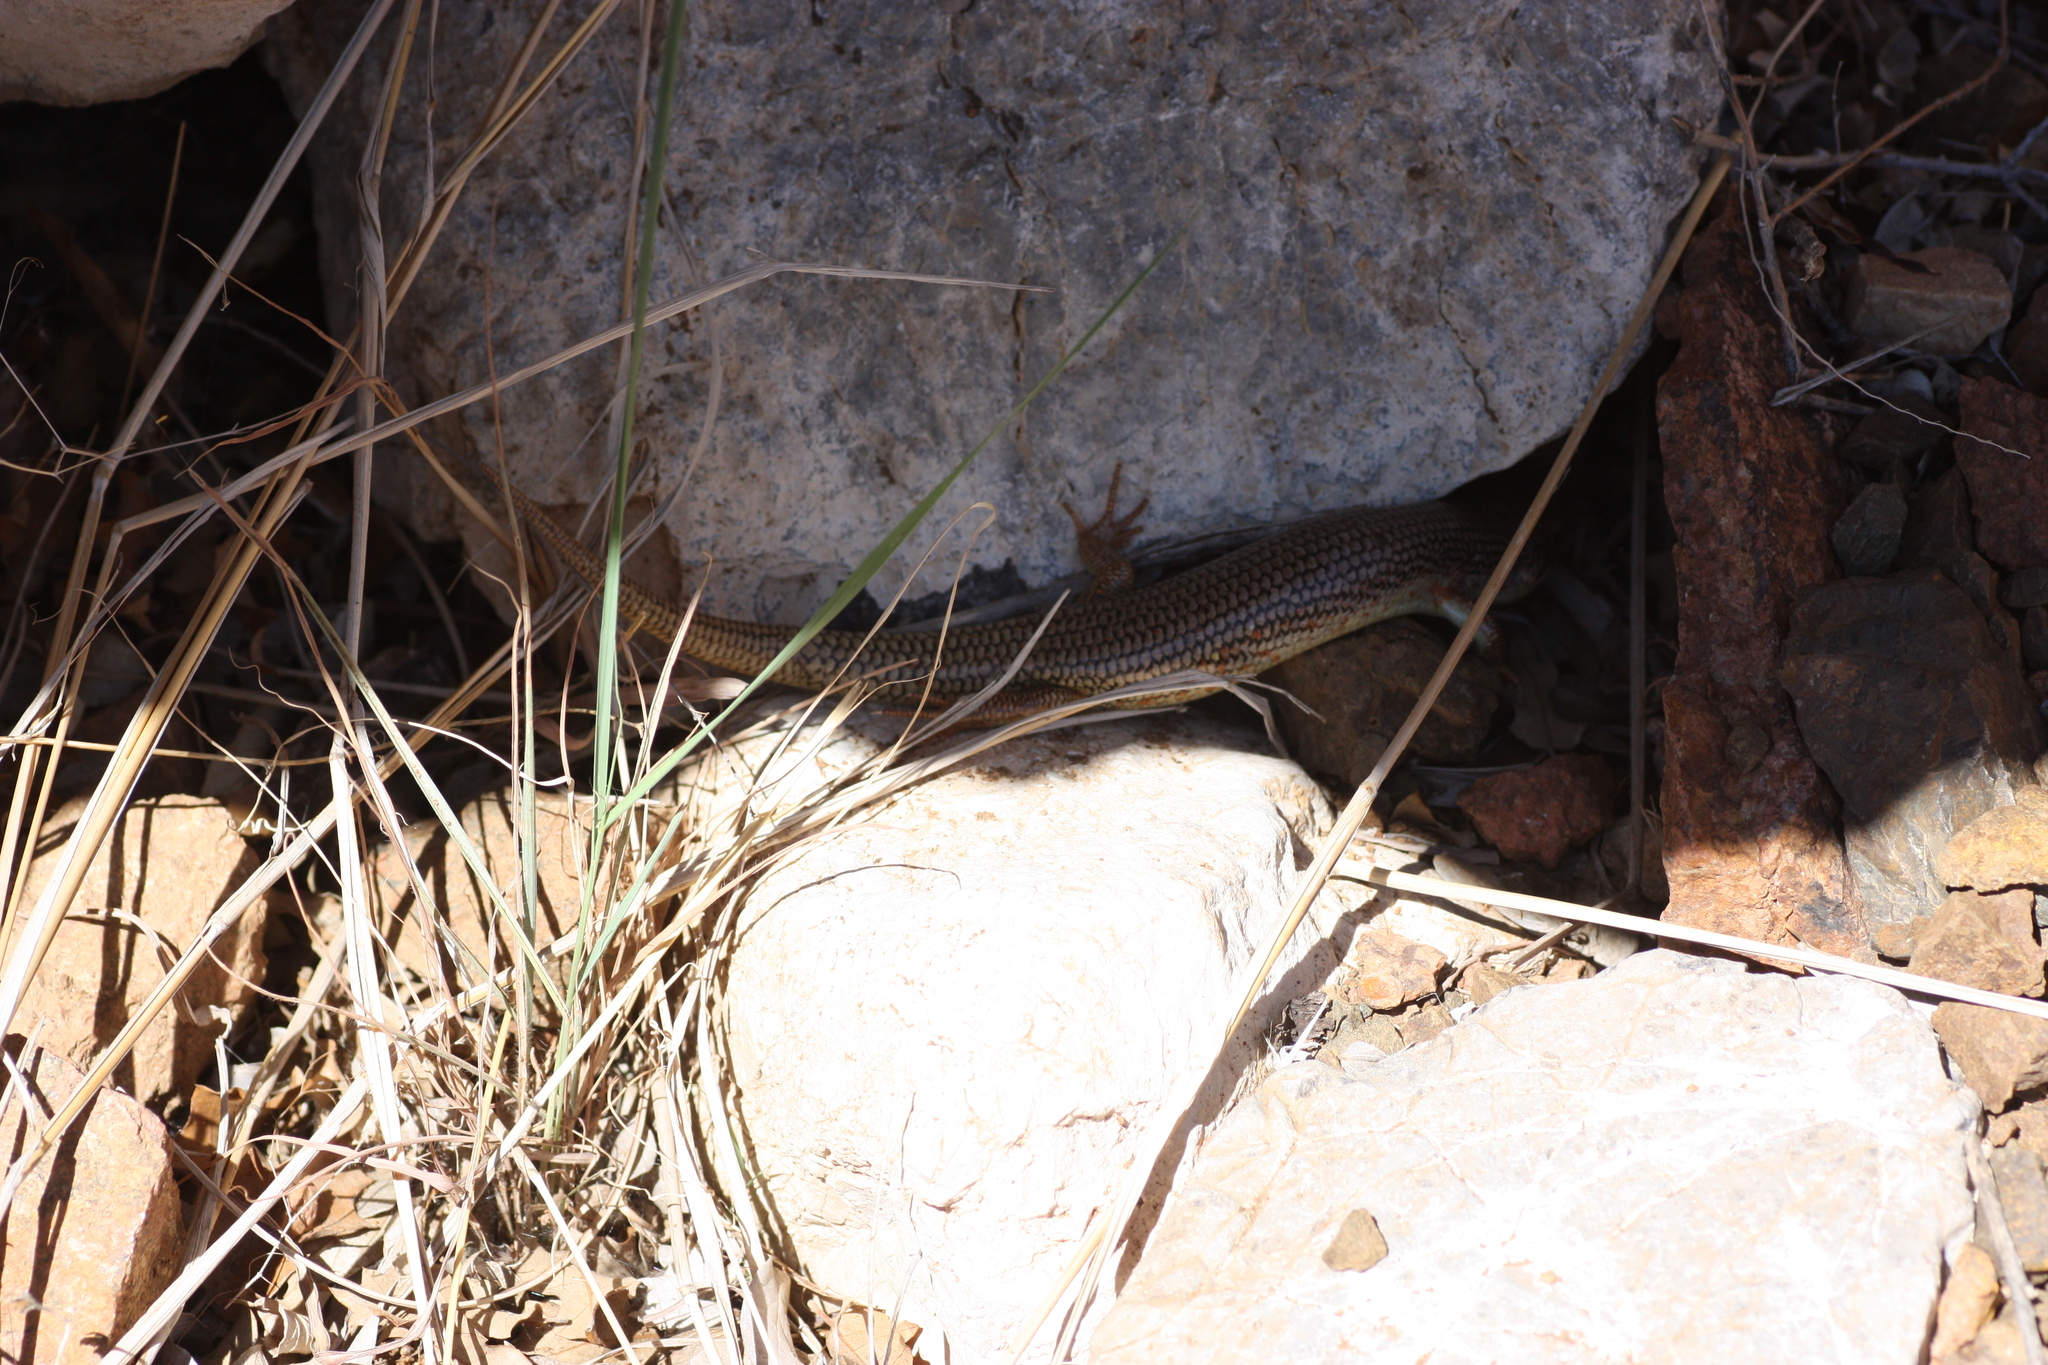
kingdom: Animalia
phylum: Chordata
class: Squamata
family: Scincidae
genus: Plestiodon
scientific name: Plestiodon obsoletus
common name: Great plains skink
